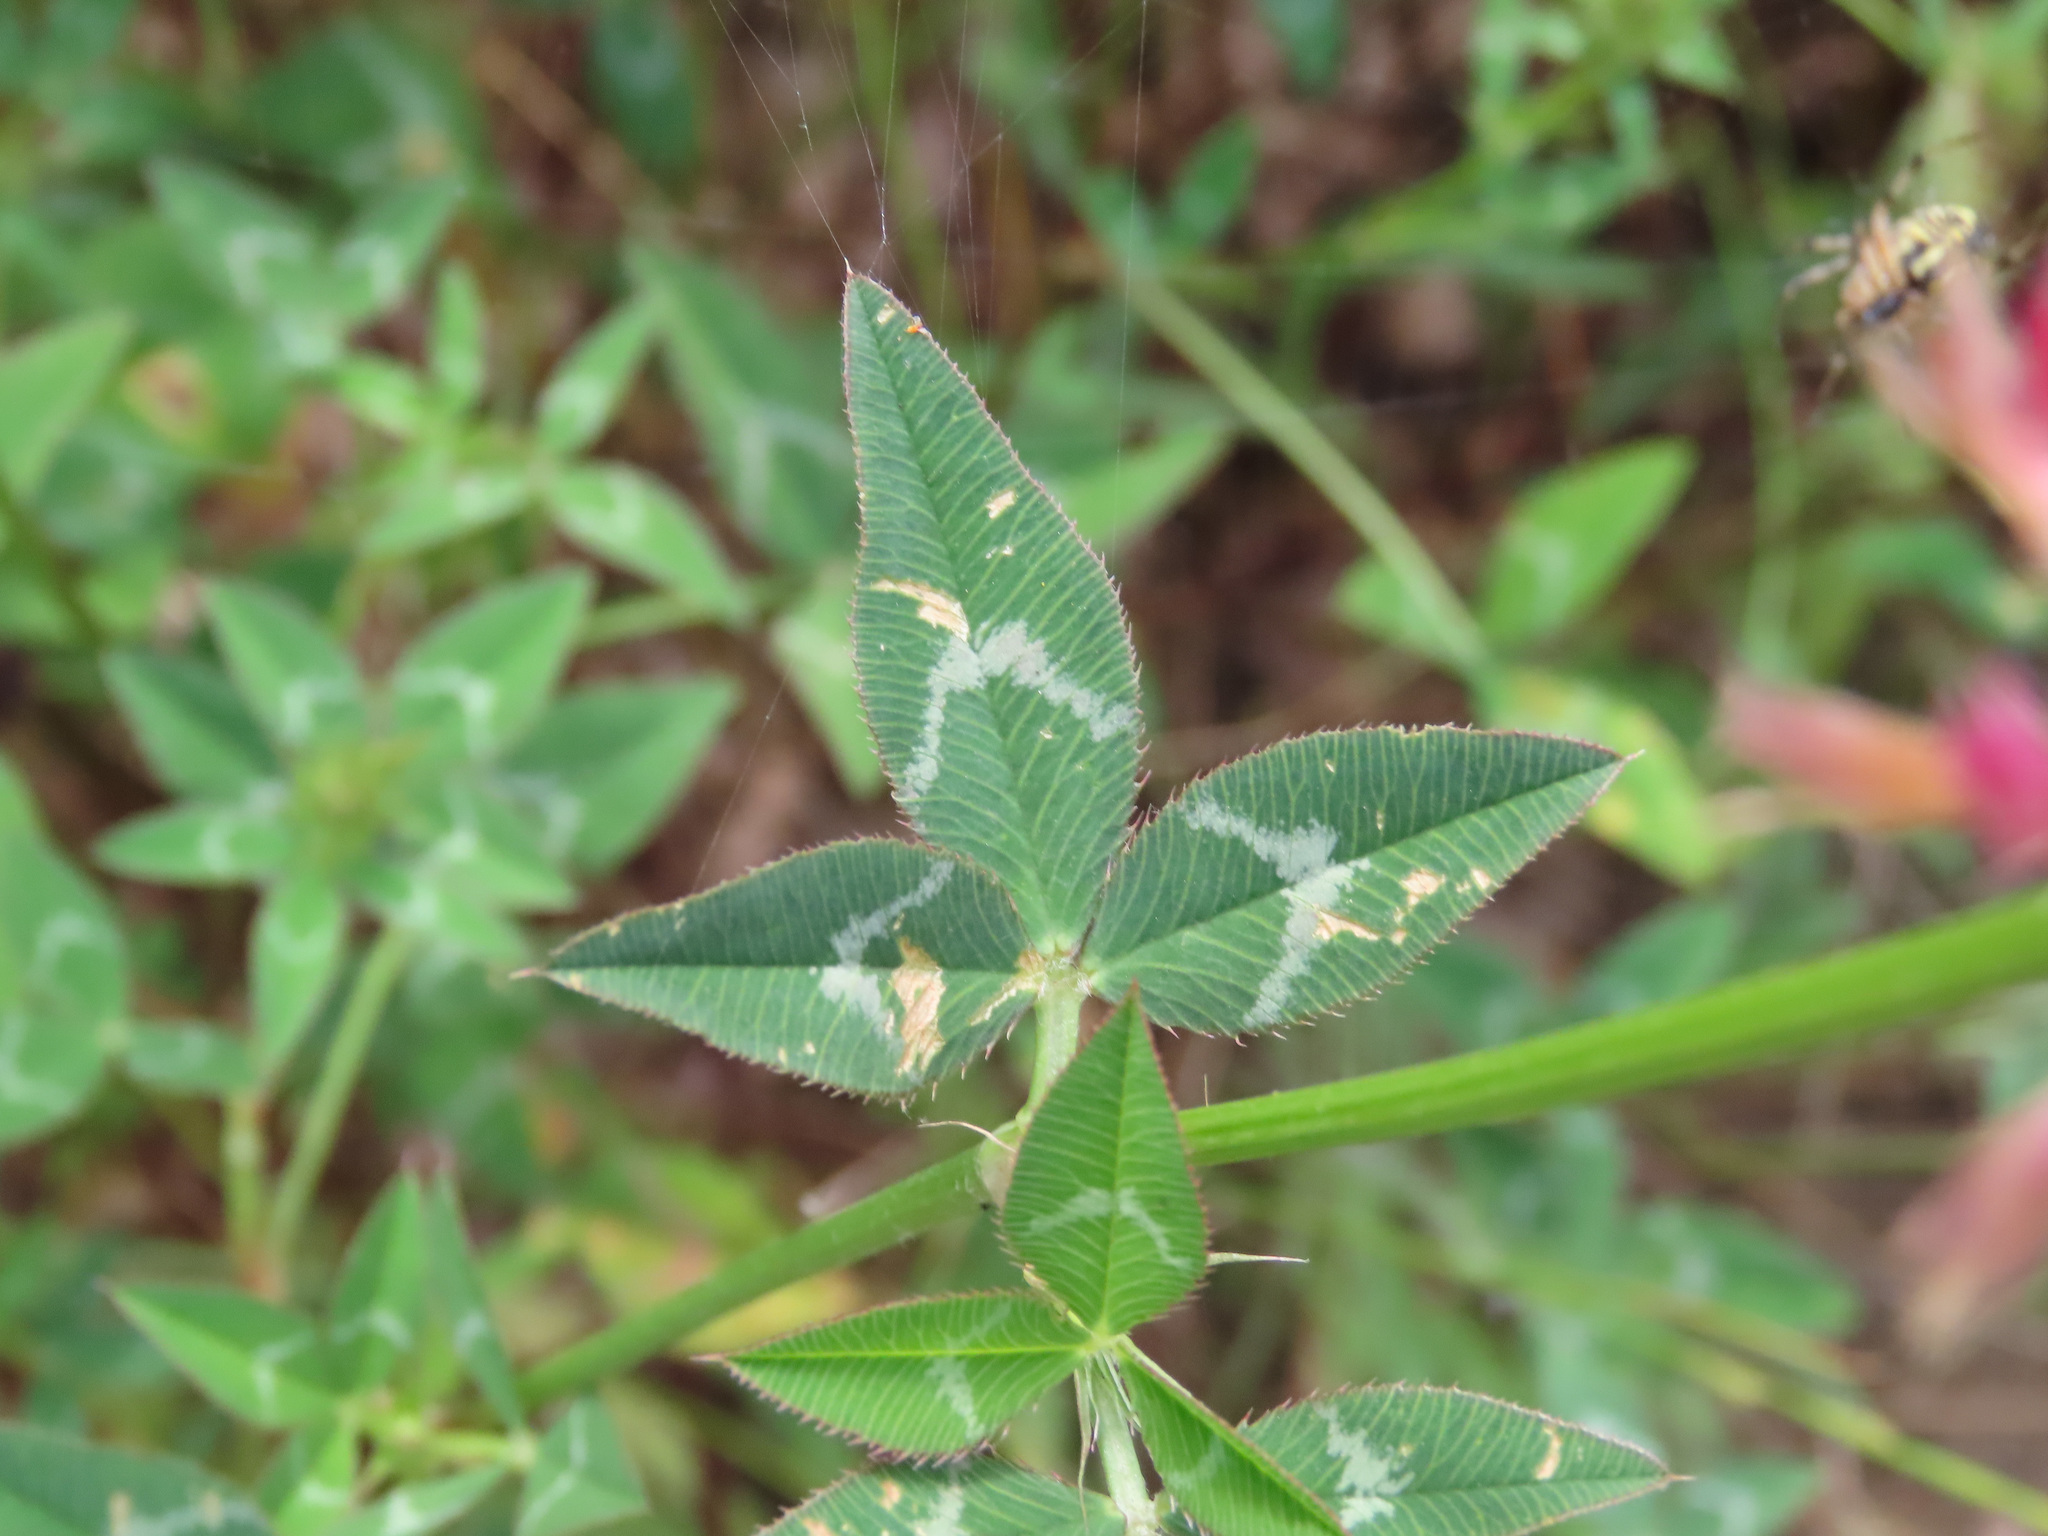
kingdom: Plantae
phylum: Tracheophyta
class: Magnoliopsida
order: Fabales
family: Fabaceae
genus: Trifolium
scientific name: Trifolium vesiculosum
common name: Arrowleaf clover
